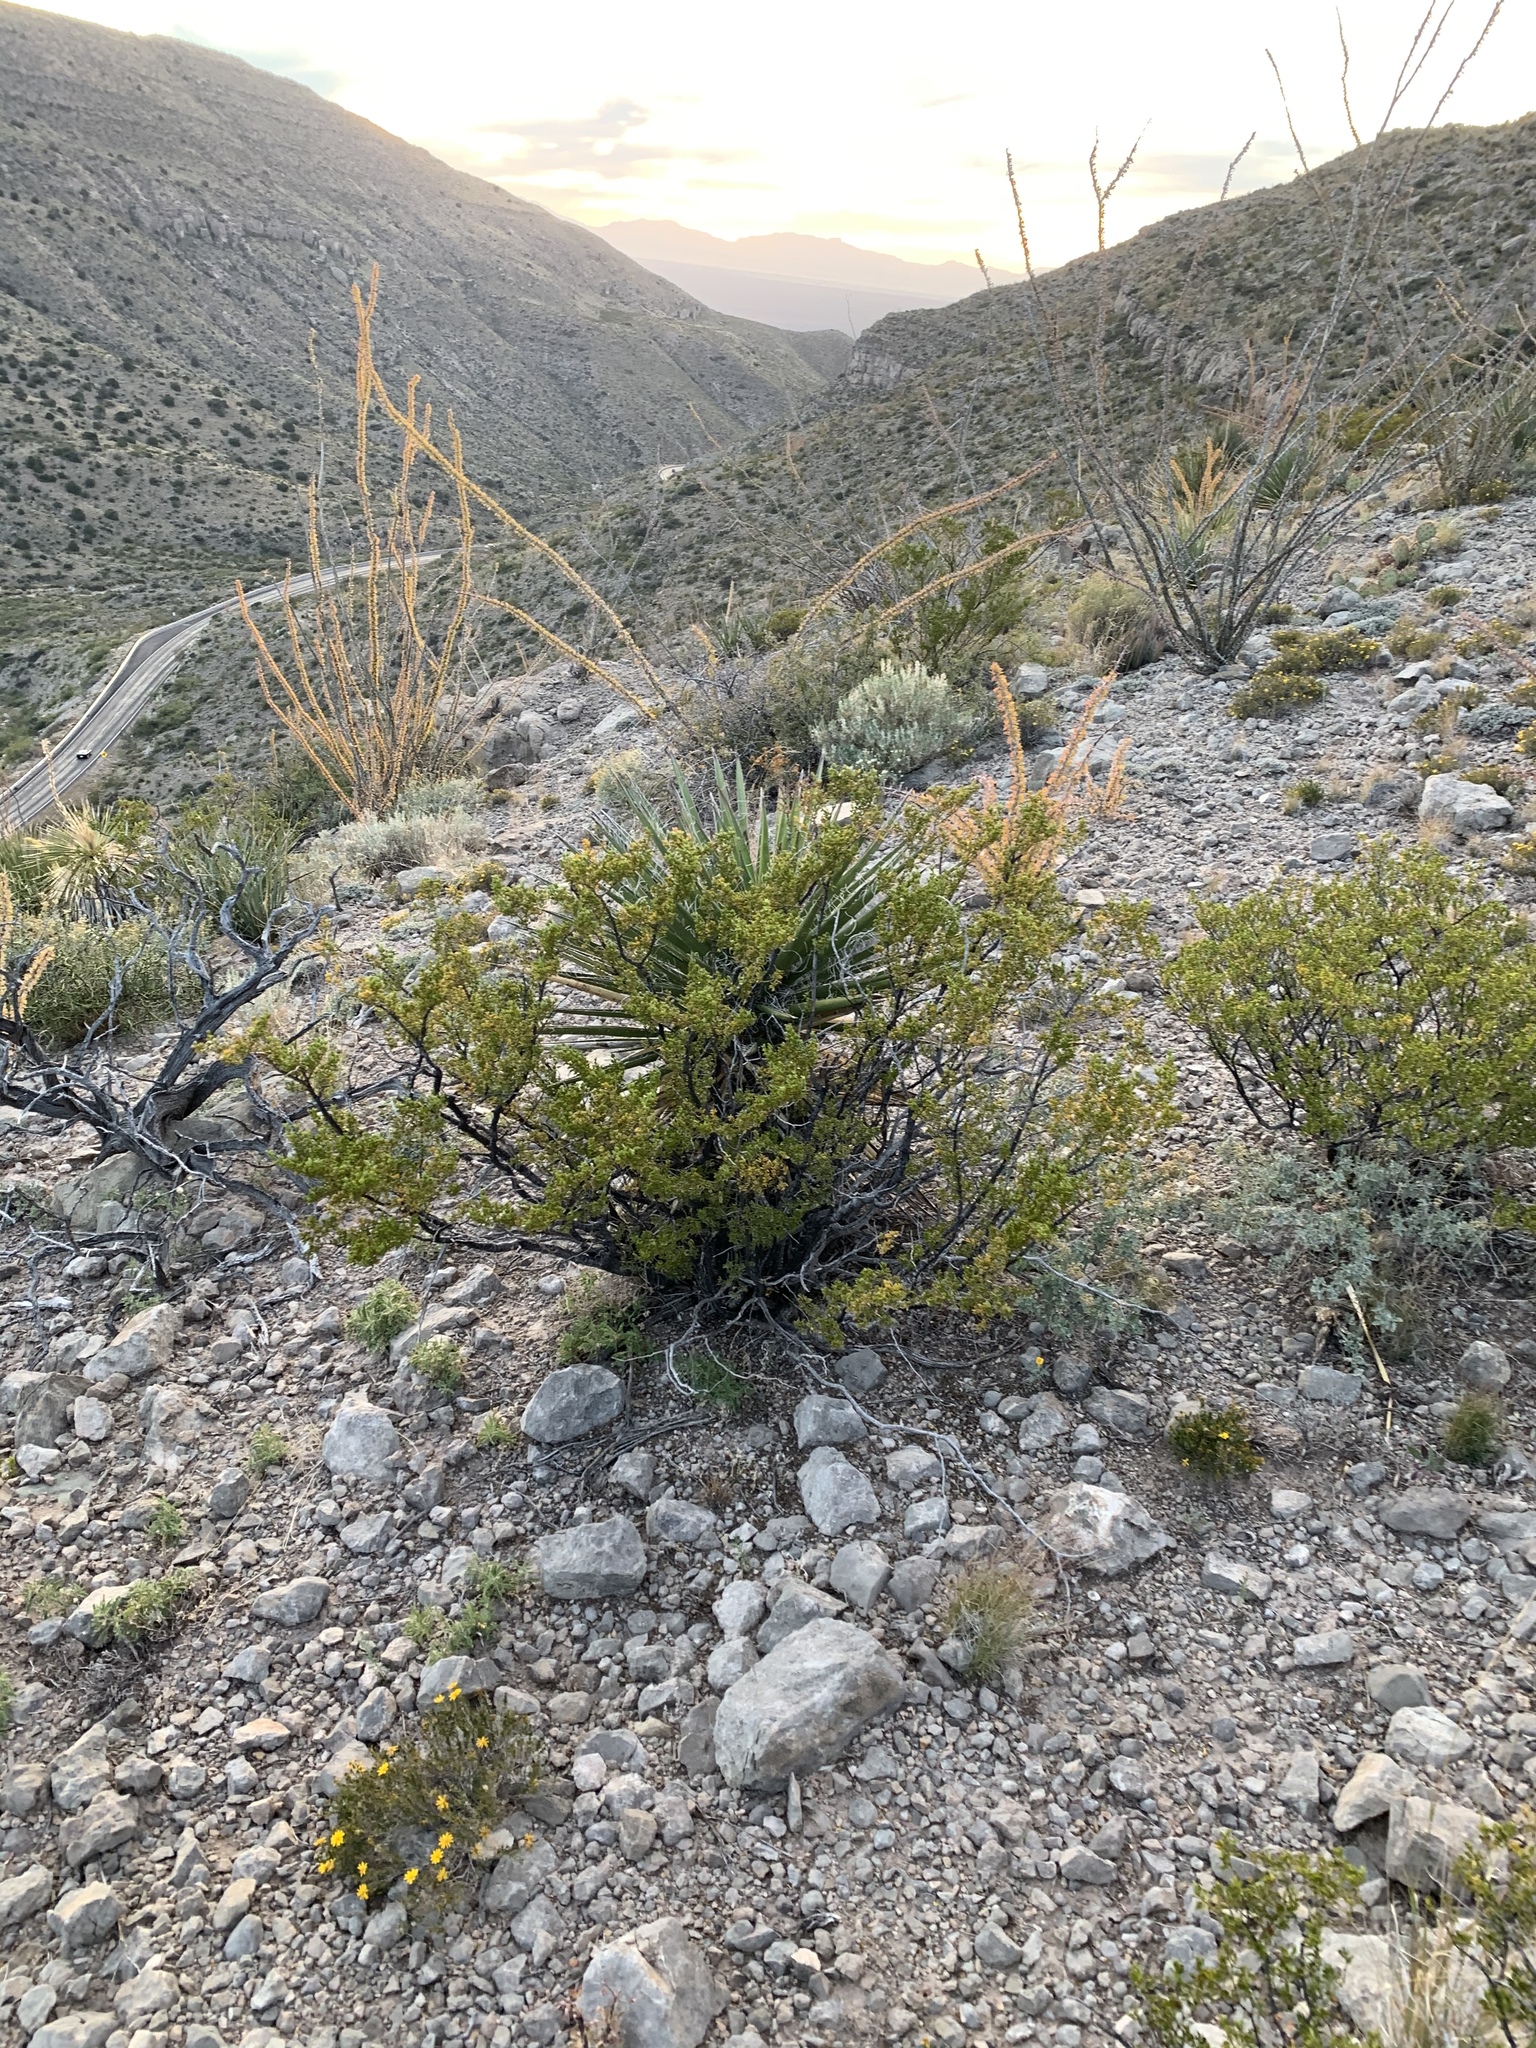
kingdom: Plantae
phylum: Tracheophyta
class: Magnoliopsida
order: Zygophyllales
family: Zygophyllaceae
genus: Larrea
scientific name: Larrea tridentata
